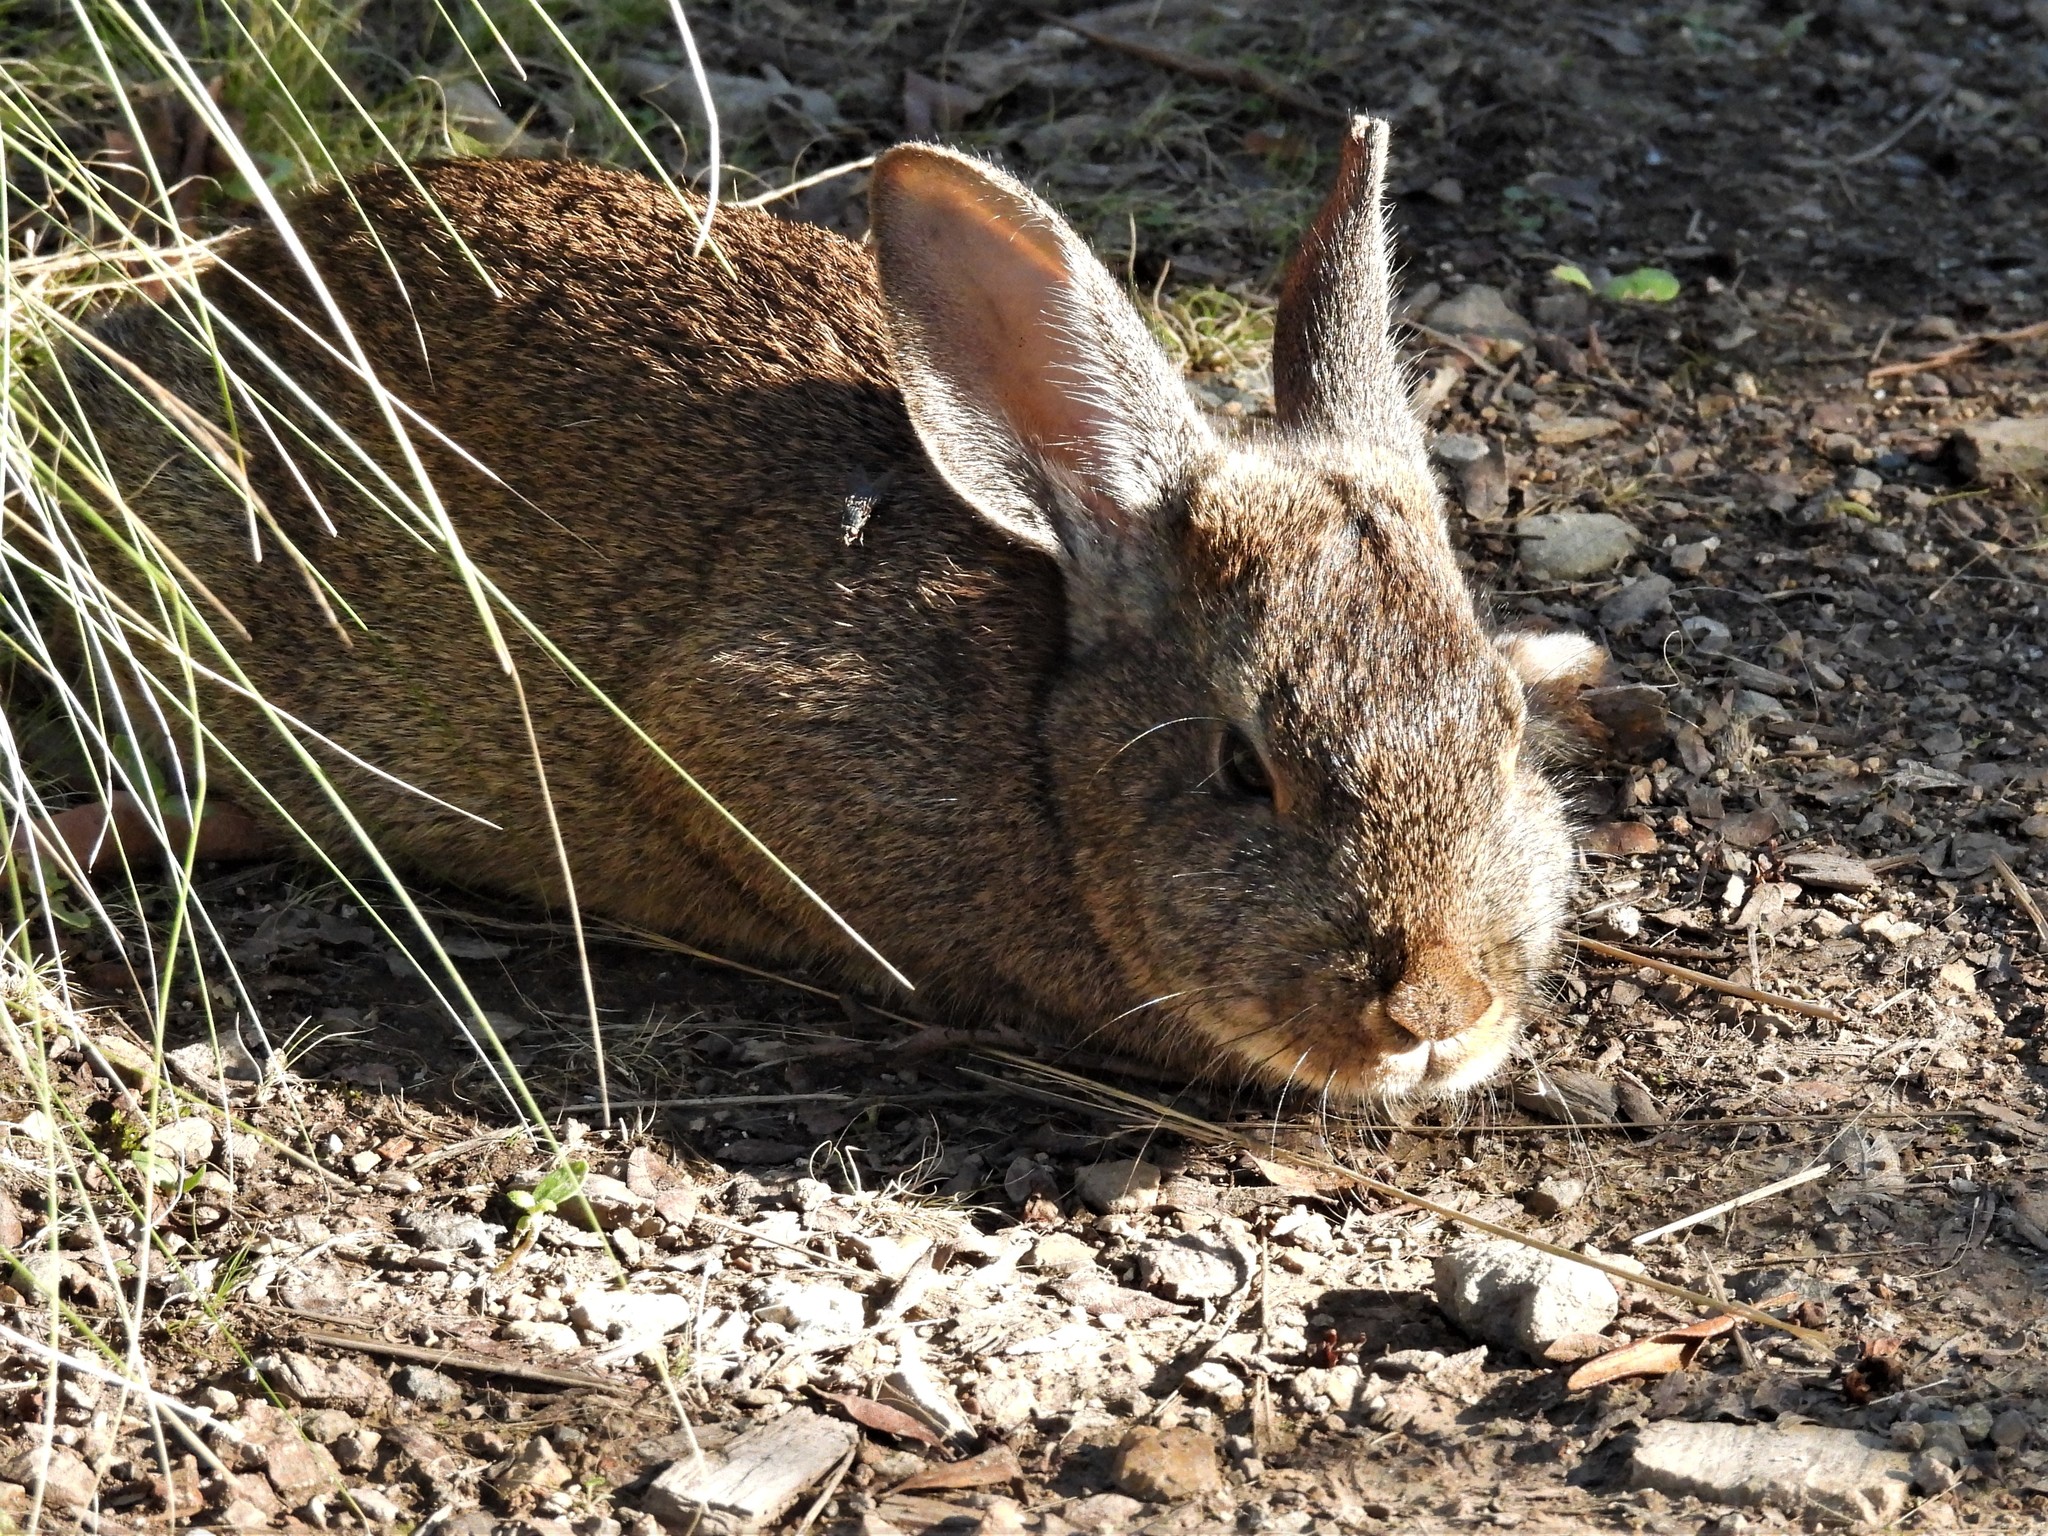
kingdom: Animalia
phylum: Chordata
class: Mammalia
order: Lagomorpha
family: Leporidae
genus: Sylvilagus
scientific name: Sylvilagus bachmani
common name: Brush rabbit
